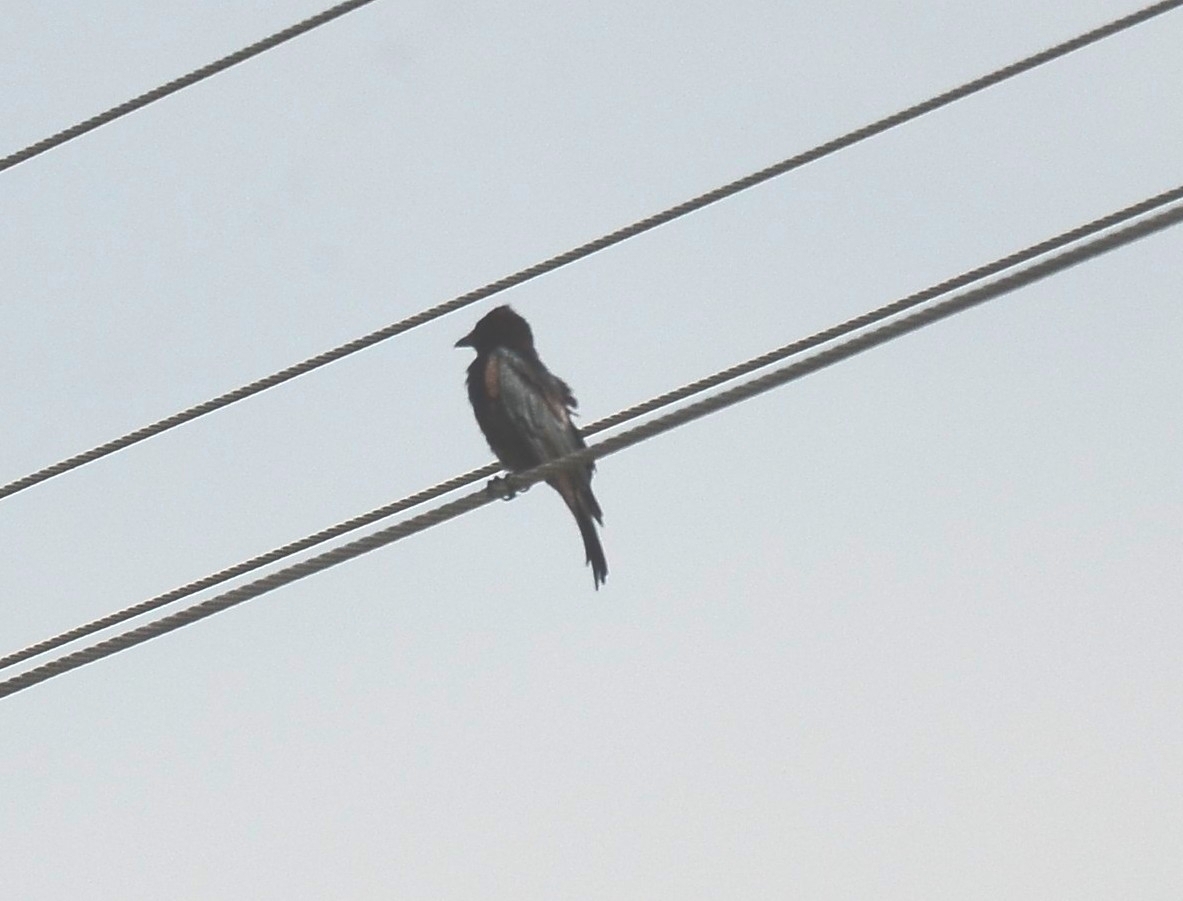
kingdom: Animalia
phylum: Chordata
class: Aves
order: Passeriformes
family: Dicruridae
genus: Dicrurus
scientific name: Dicrurus macrocercus
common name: Black drongo
